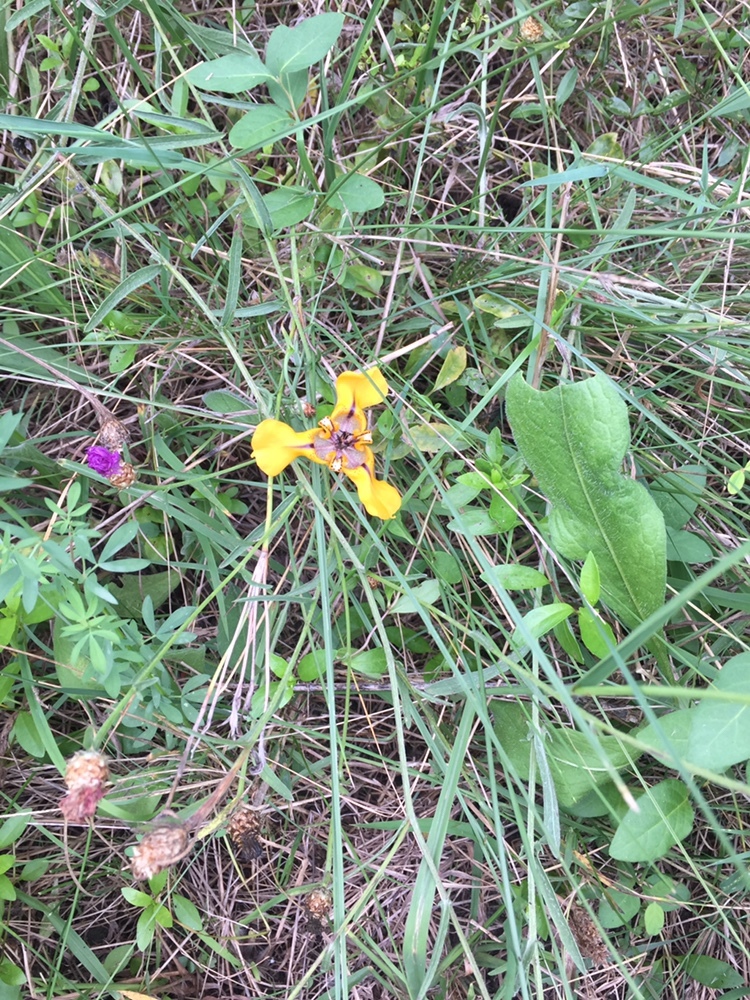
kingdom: Plantae
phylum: Tracheophyta
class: Liliopsida
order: Asparagales
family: Iridaceae
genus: Cypella
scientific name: Cypella herbertii
